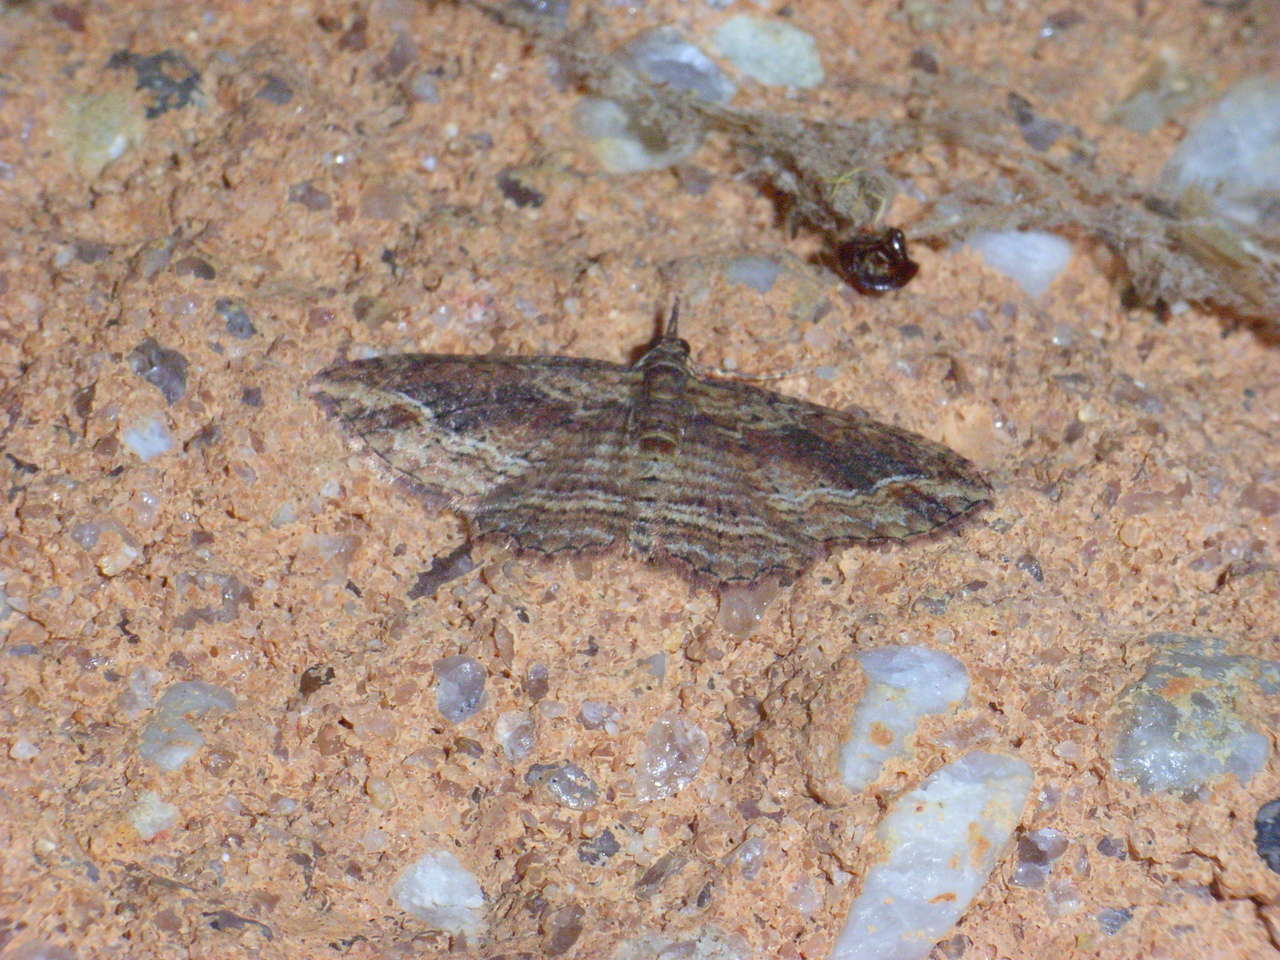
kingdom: Animalia
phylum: Arthropoda
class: Insecta
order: Lepidoptera
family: Geometridae
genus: Chloroclystis
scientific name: Chloroclystis filata
